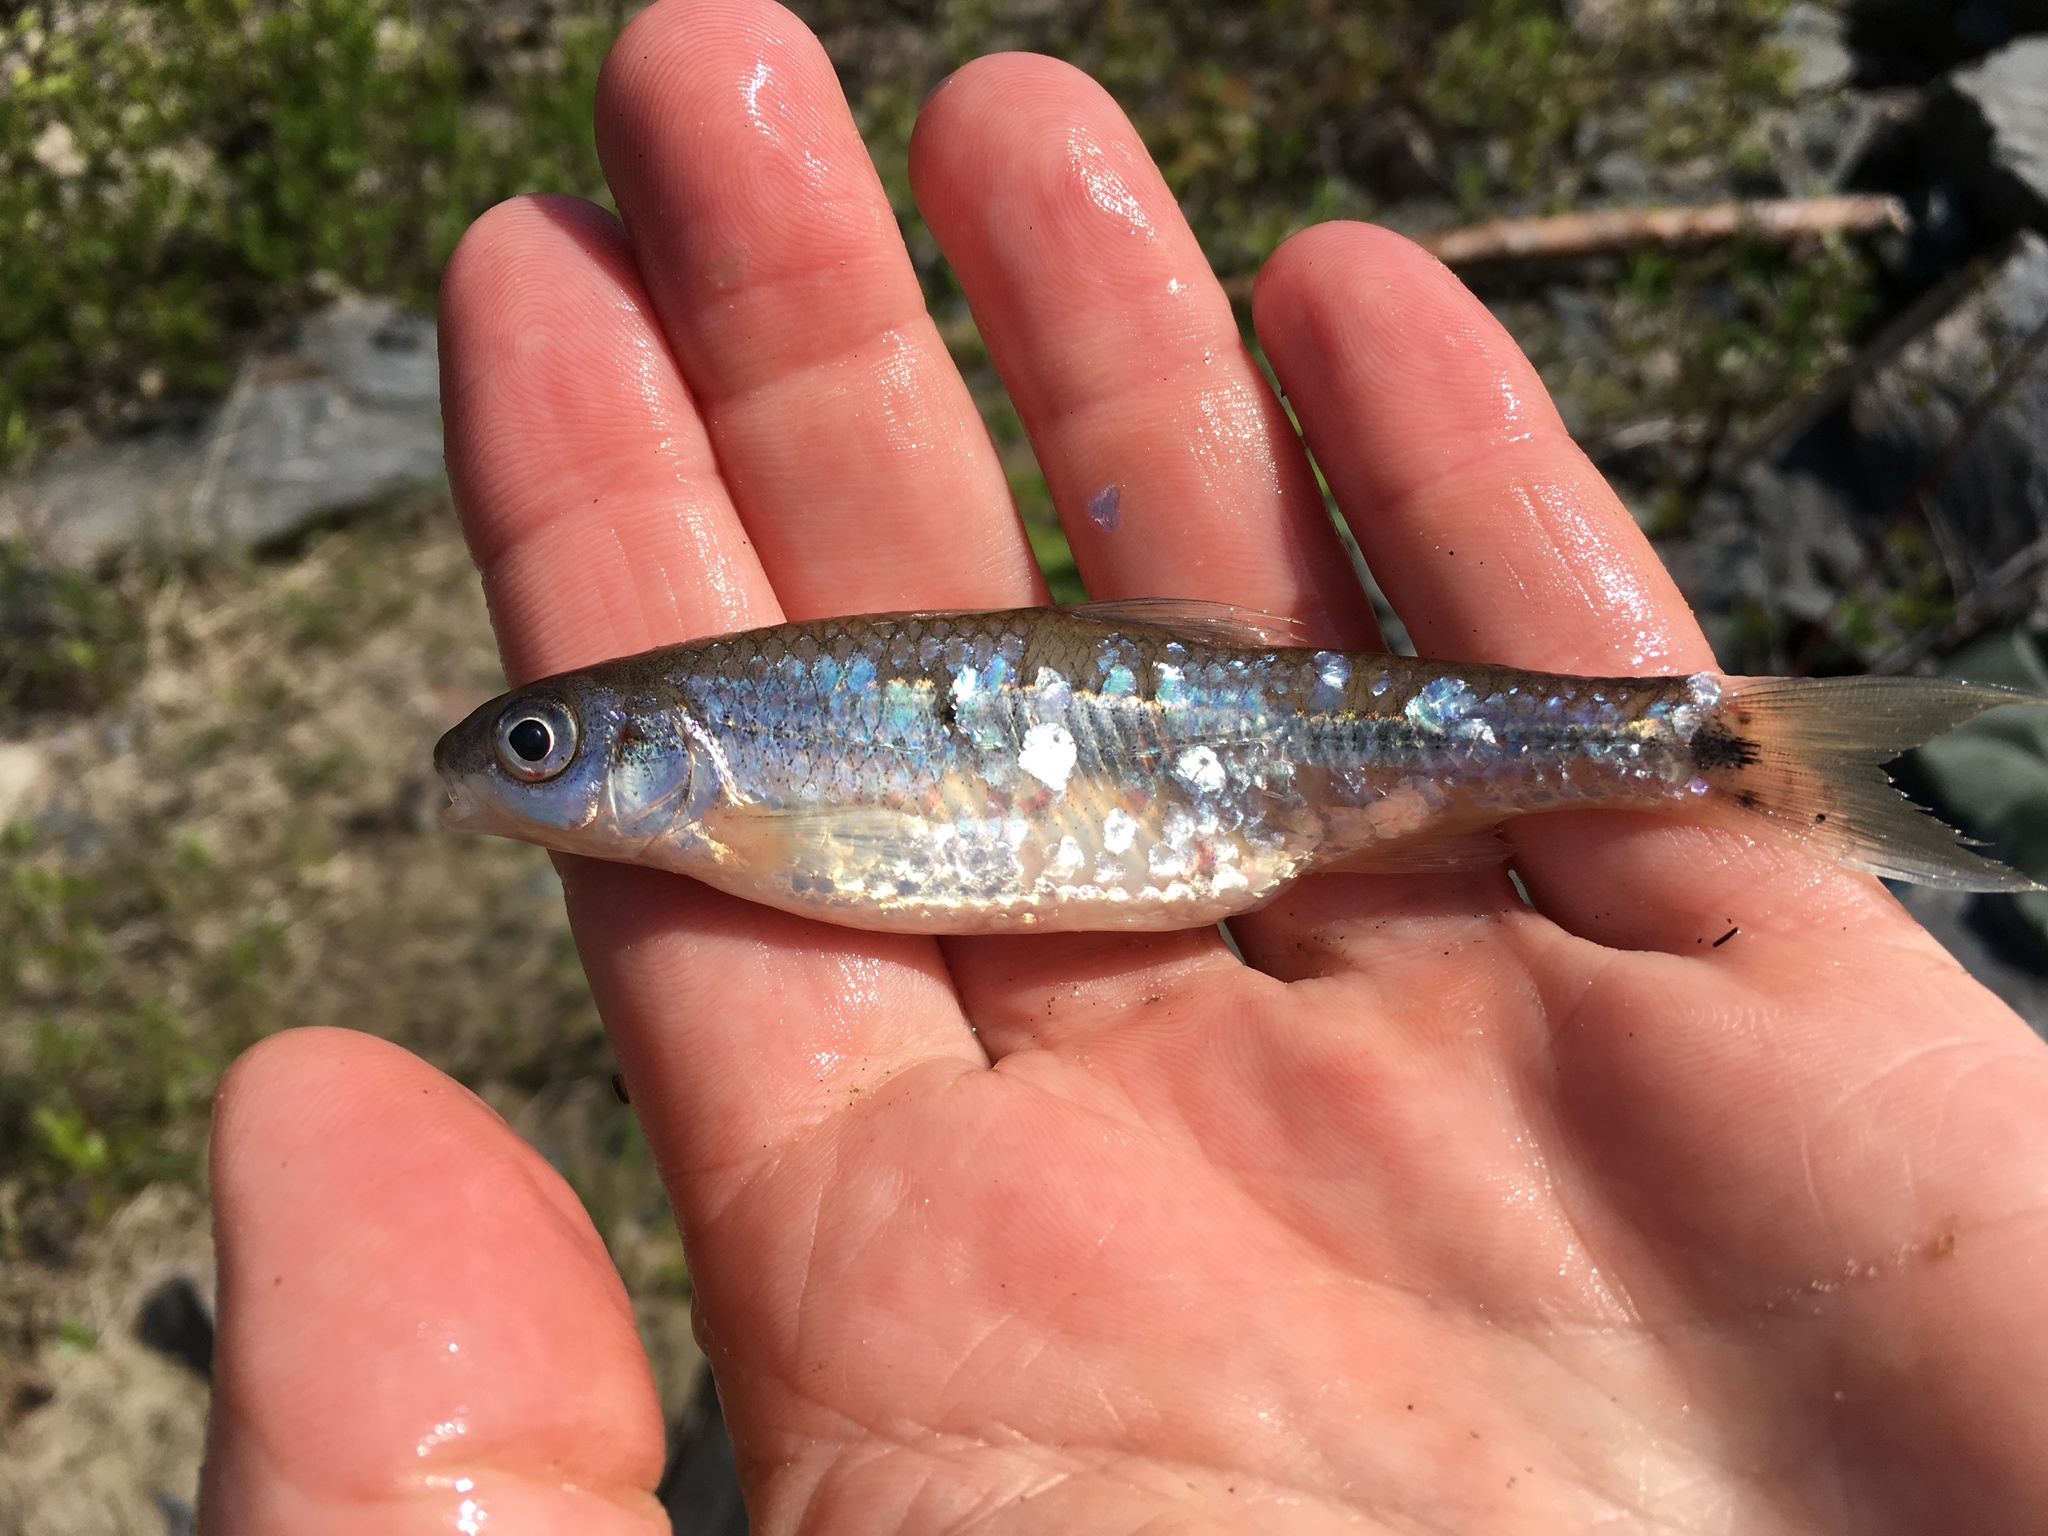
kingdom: Animalia
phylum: Chordata
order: Cypriniformes
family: Cyprinidae
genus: Notropis
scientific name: Notropis
